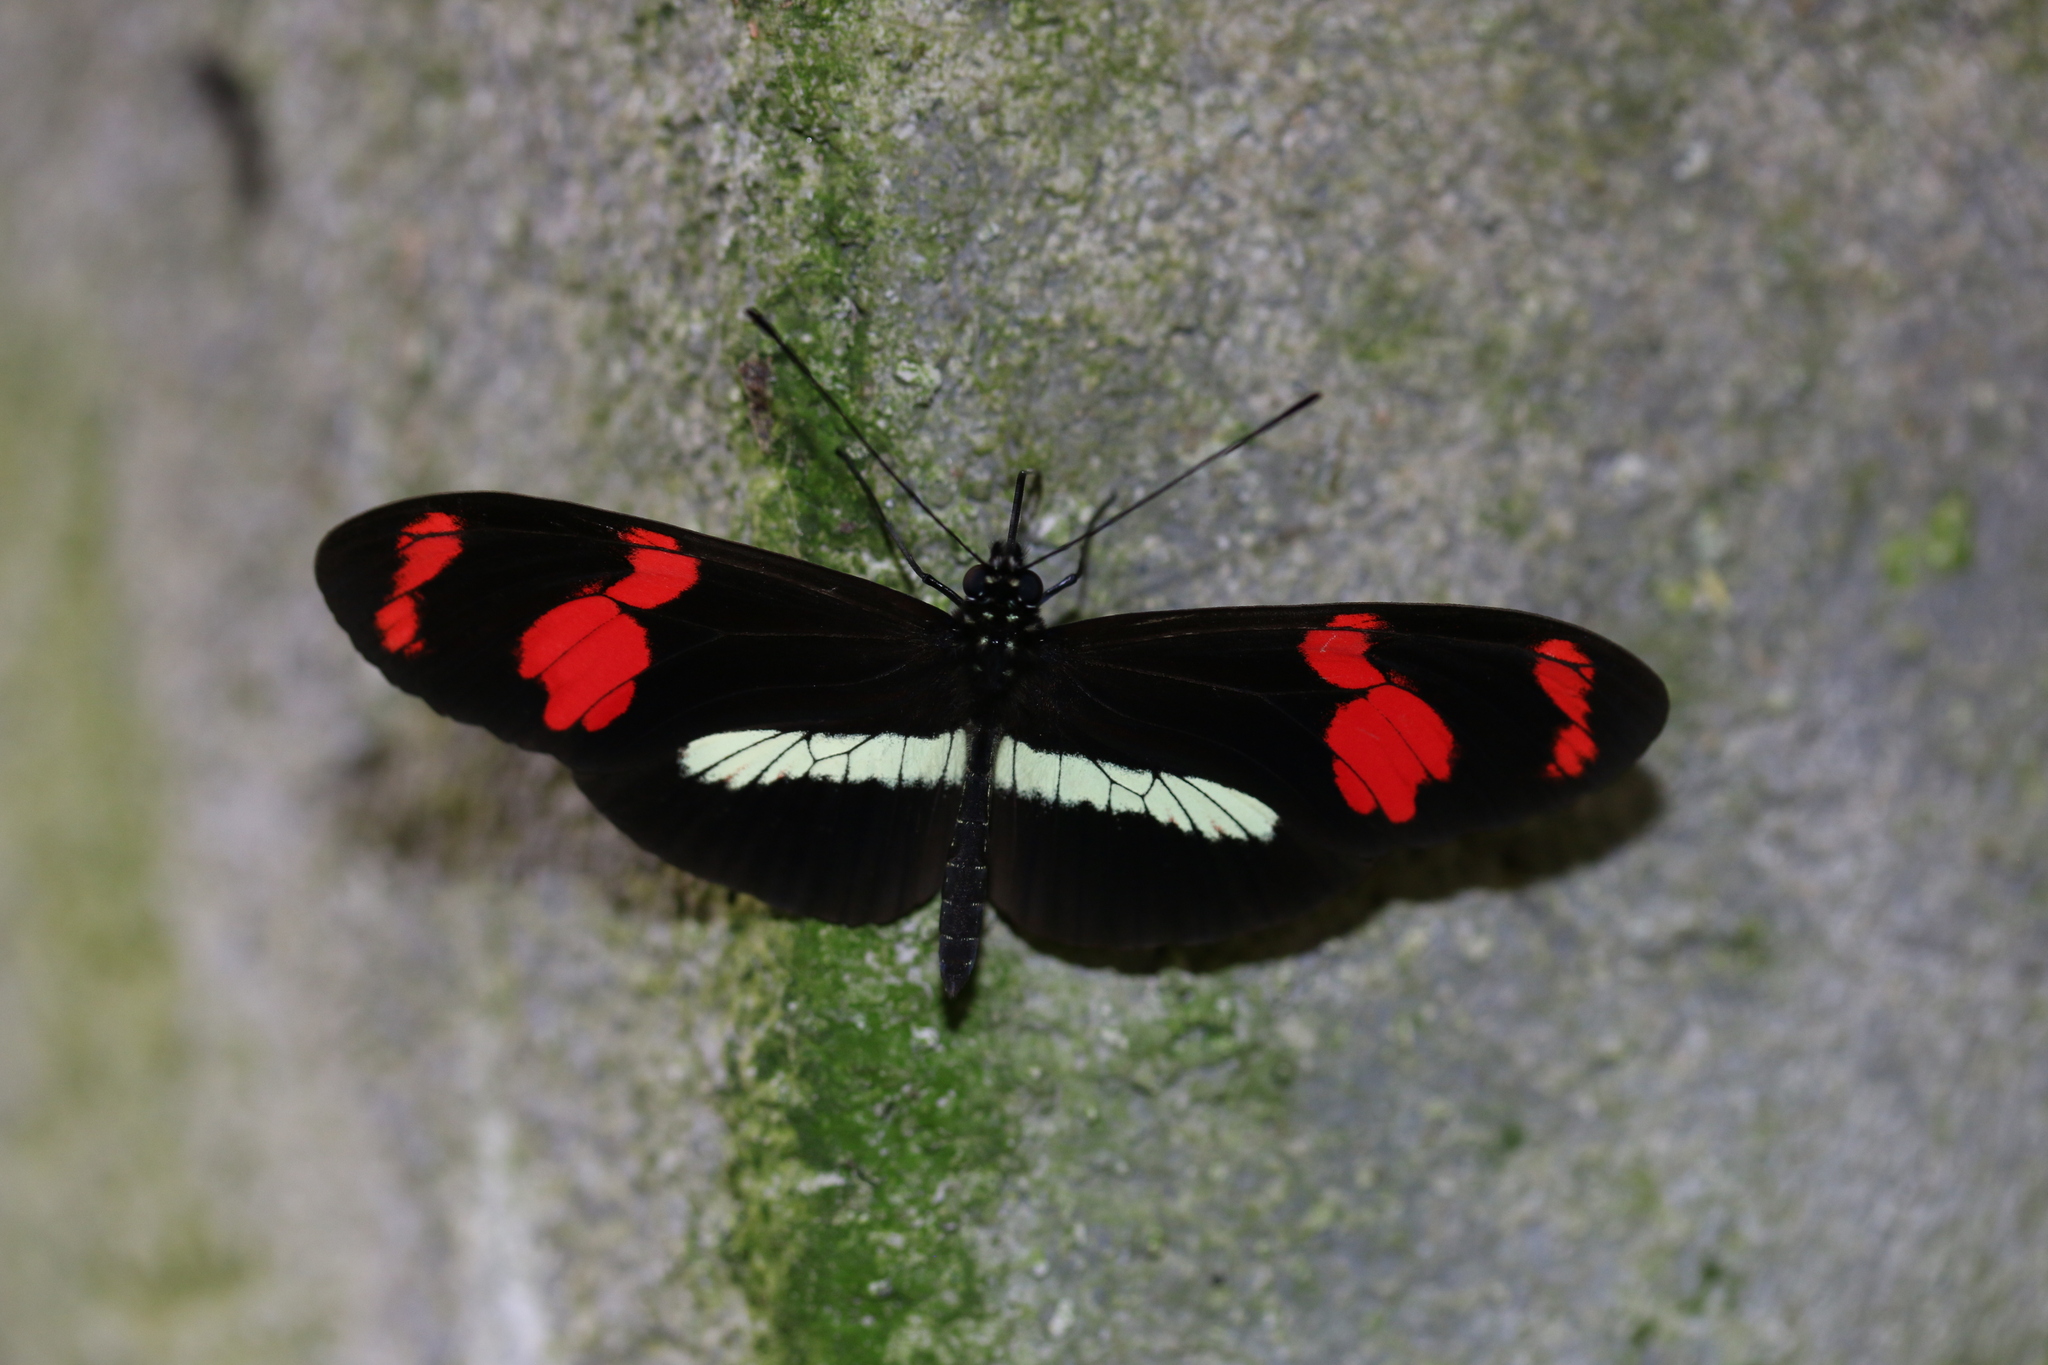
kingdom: Animalia
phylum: Arthropoda
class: Insecta
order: Lepidoptera
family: Nymphalidae
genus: Heliconius
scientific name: Heliconius telesiphe
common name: Telesiphe longwing
